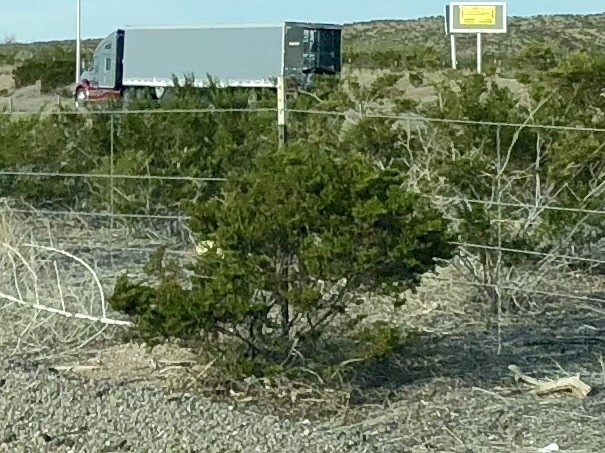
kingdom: Plantae
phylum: Tracheophyta
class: Magnoliopsida
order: Zygophyllales
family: Zygophyllaceae
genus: Larrea
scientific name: Larrea tridentata
